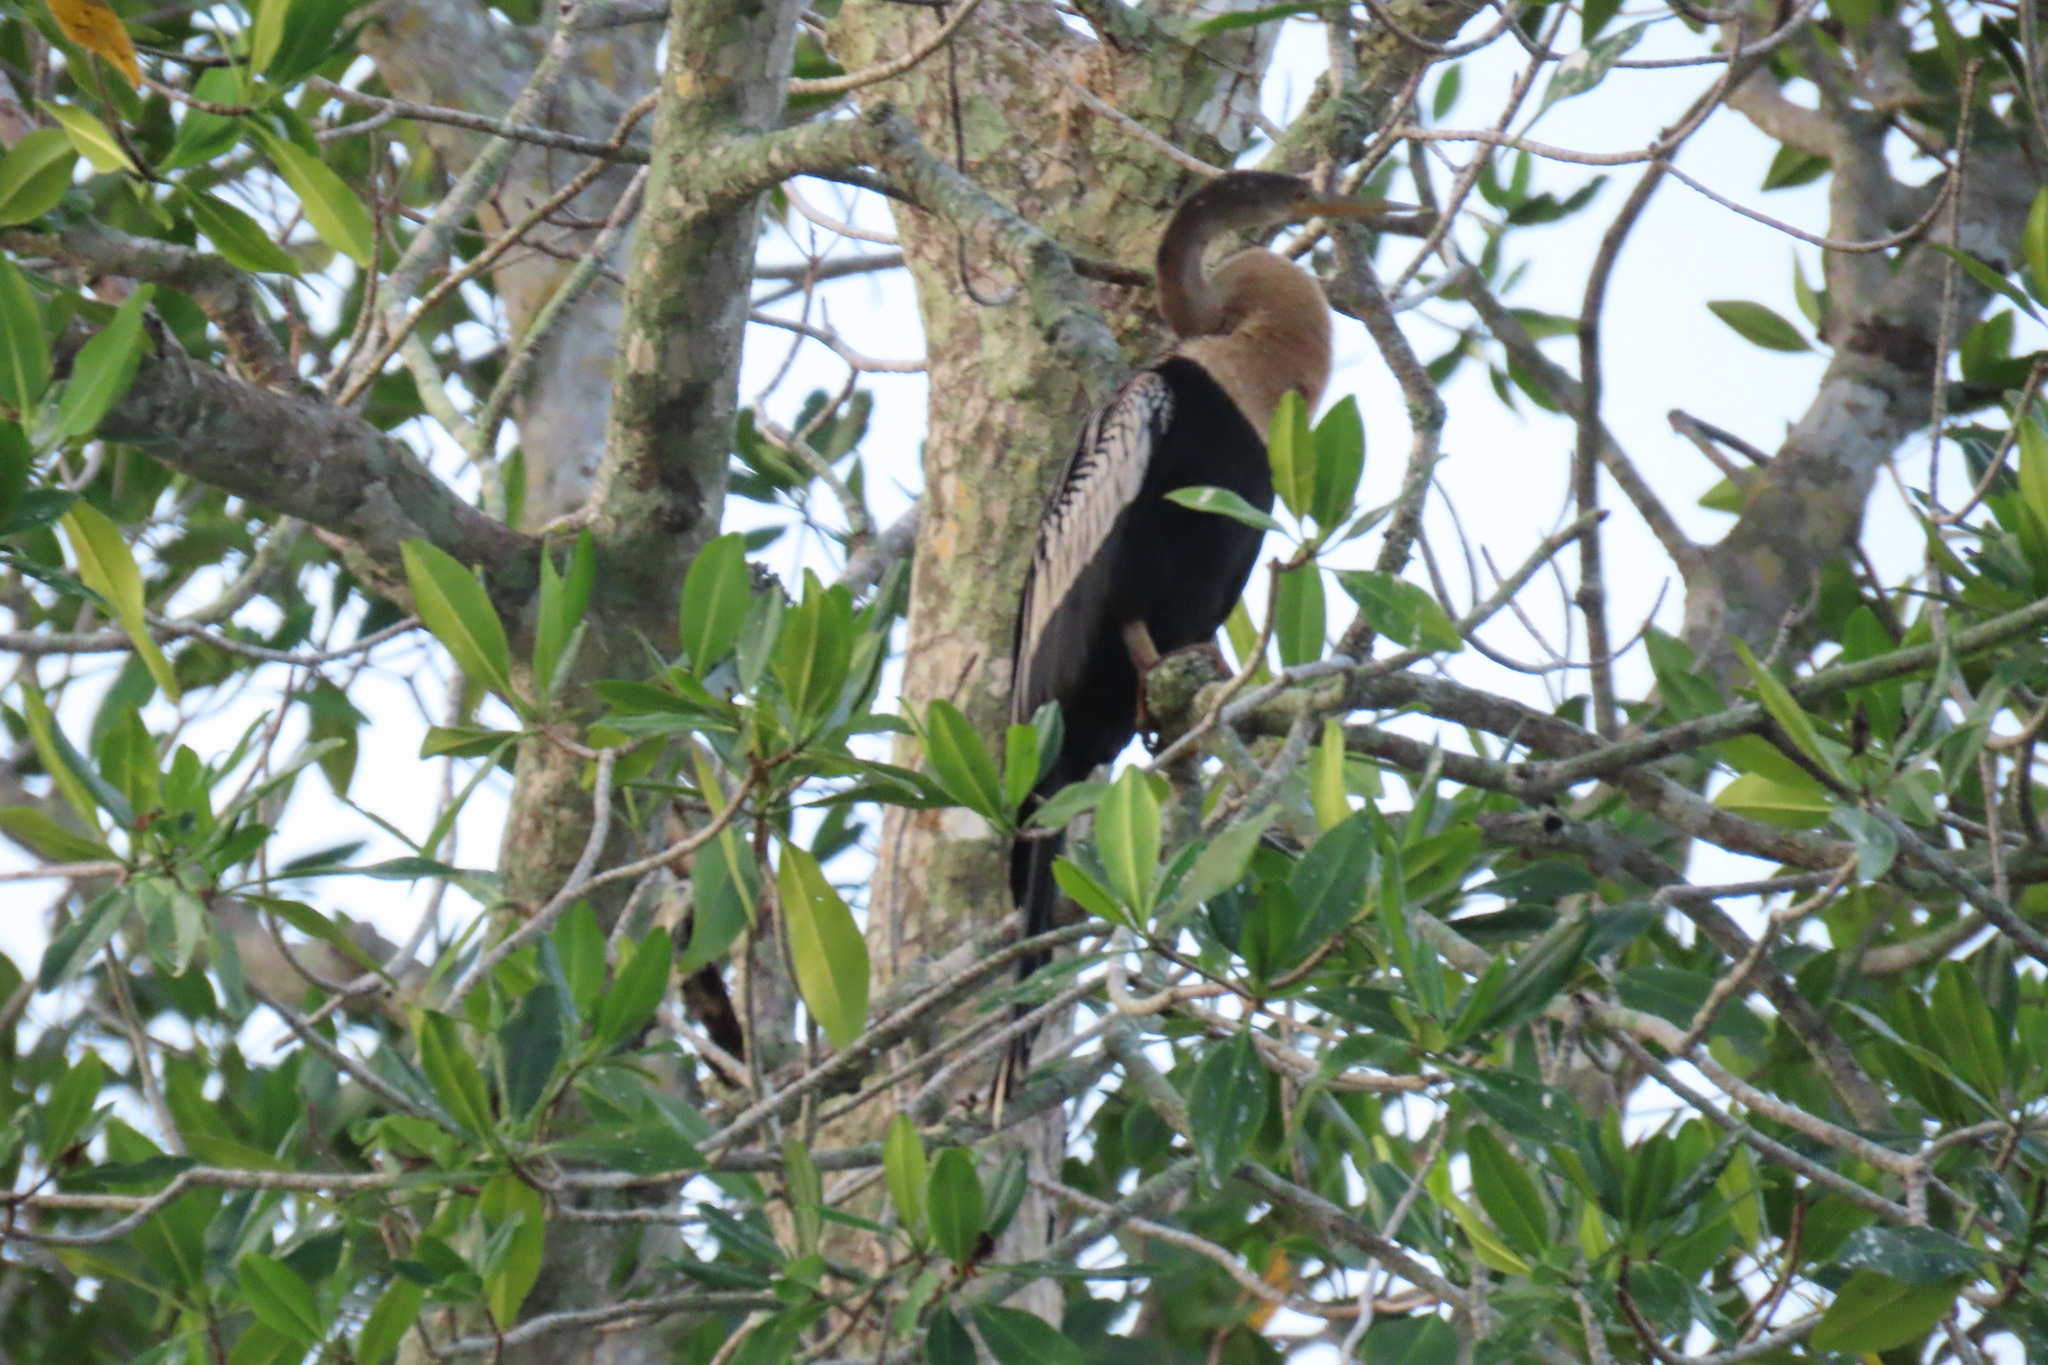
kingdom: Animalia
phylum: Chordata
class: Aves
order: Suliformes
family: Anhingidae
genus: Anhinga
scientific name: Anhinga anhinga
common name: Anhinga
